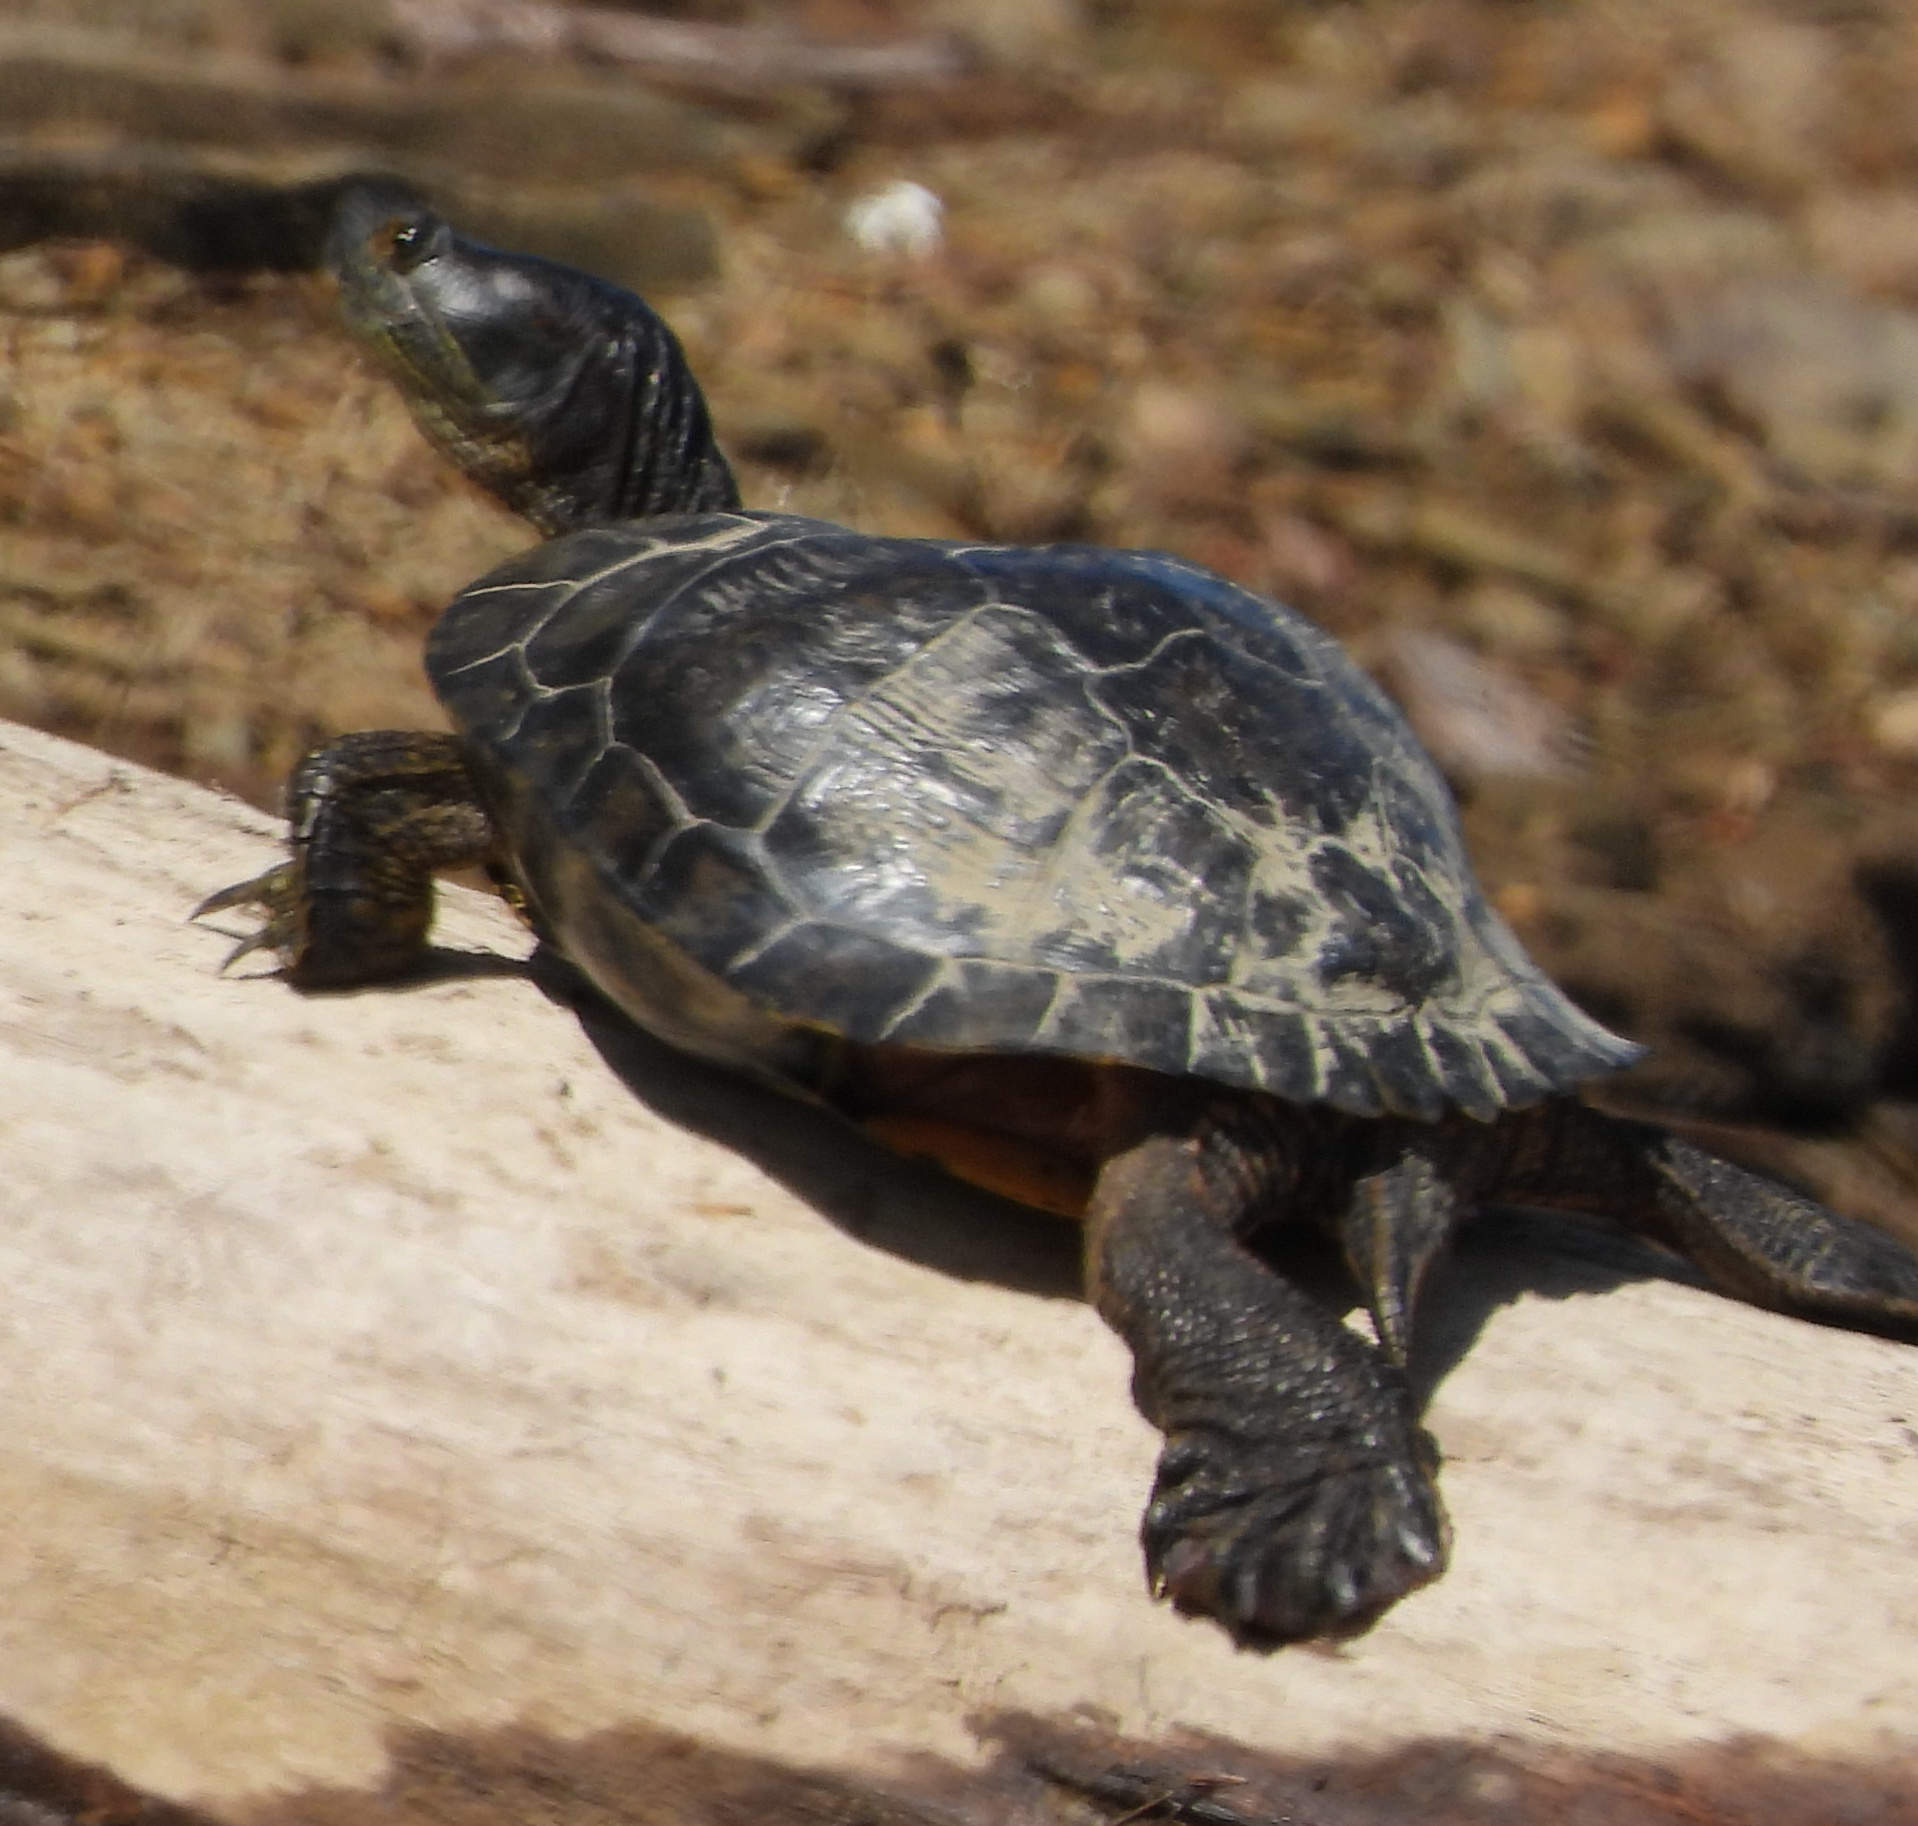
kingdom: Animalia
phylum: Chordata
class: Testudines
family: Emydidae
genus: Trachemys
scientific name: Trachemys scripta
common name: Slider
